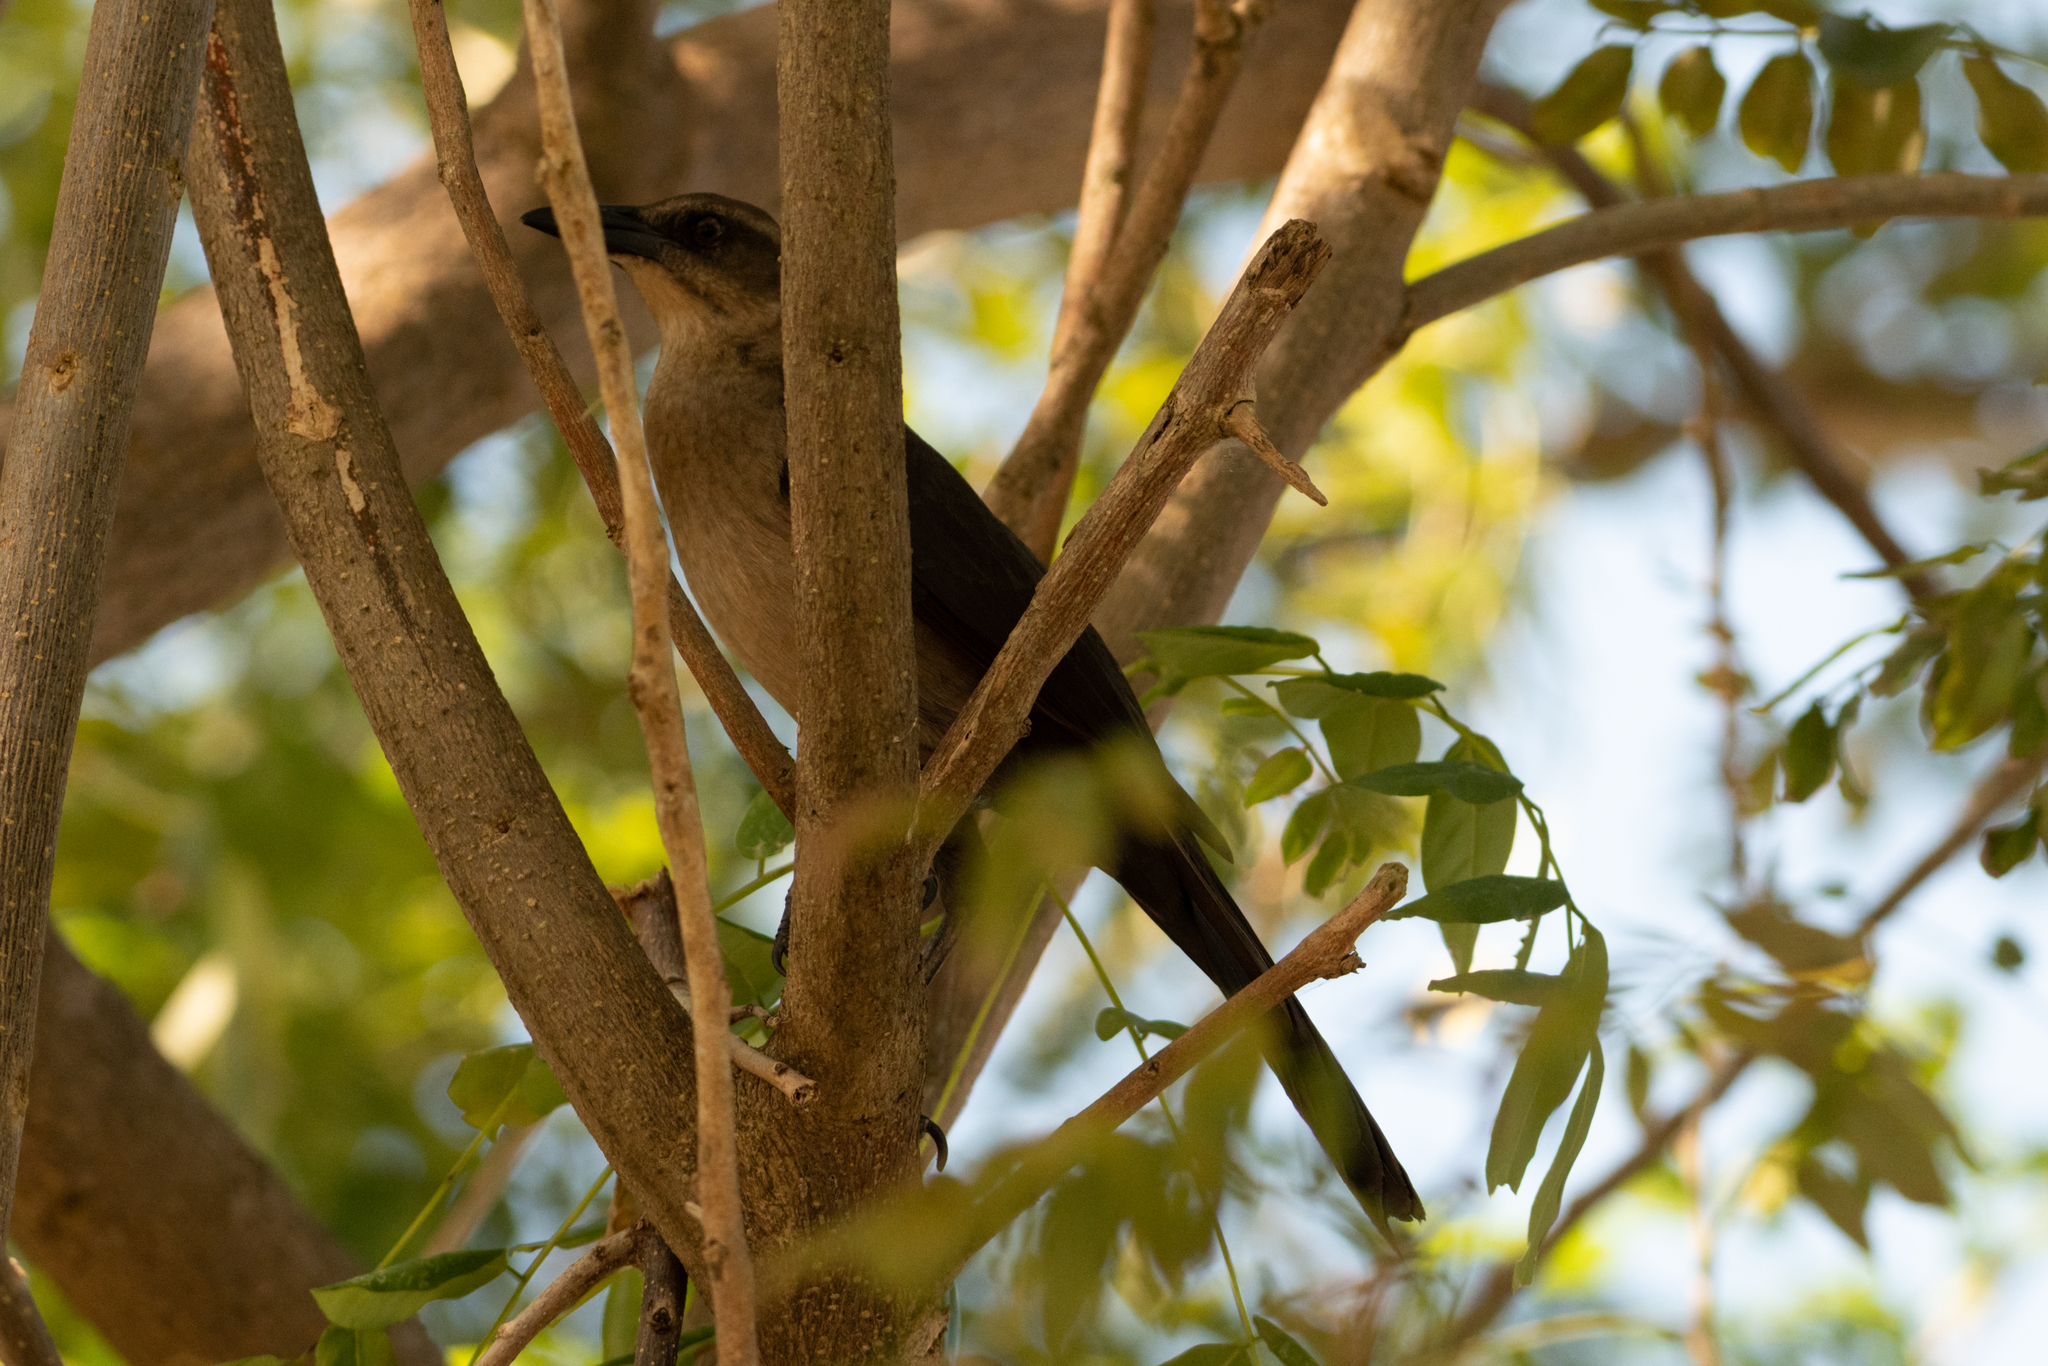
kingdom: Animalia
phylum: Chordata
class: Aves
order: Passeriformes
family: Icteridae
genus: Quiscalus
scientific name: Quiscalus mexicanus
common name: Great-tailed grackle
